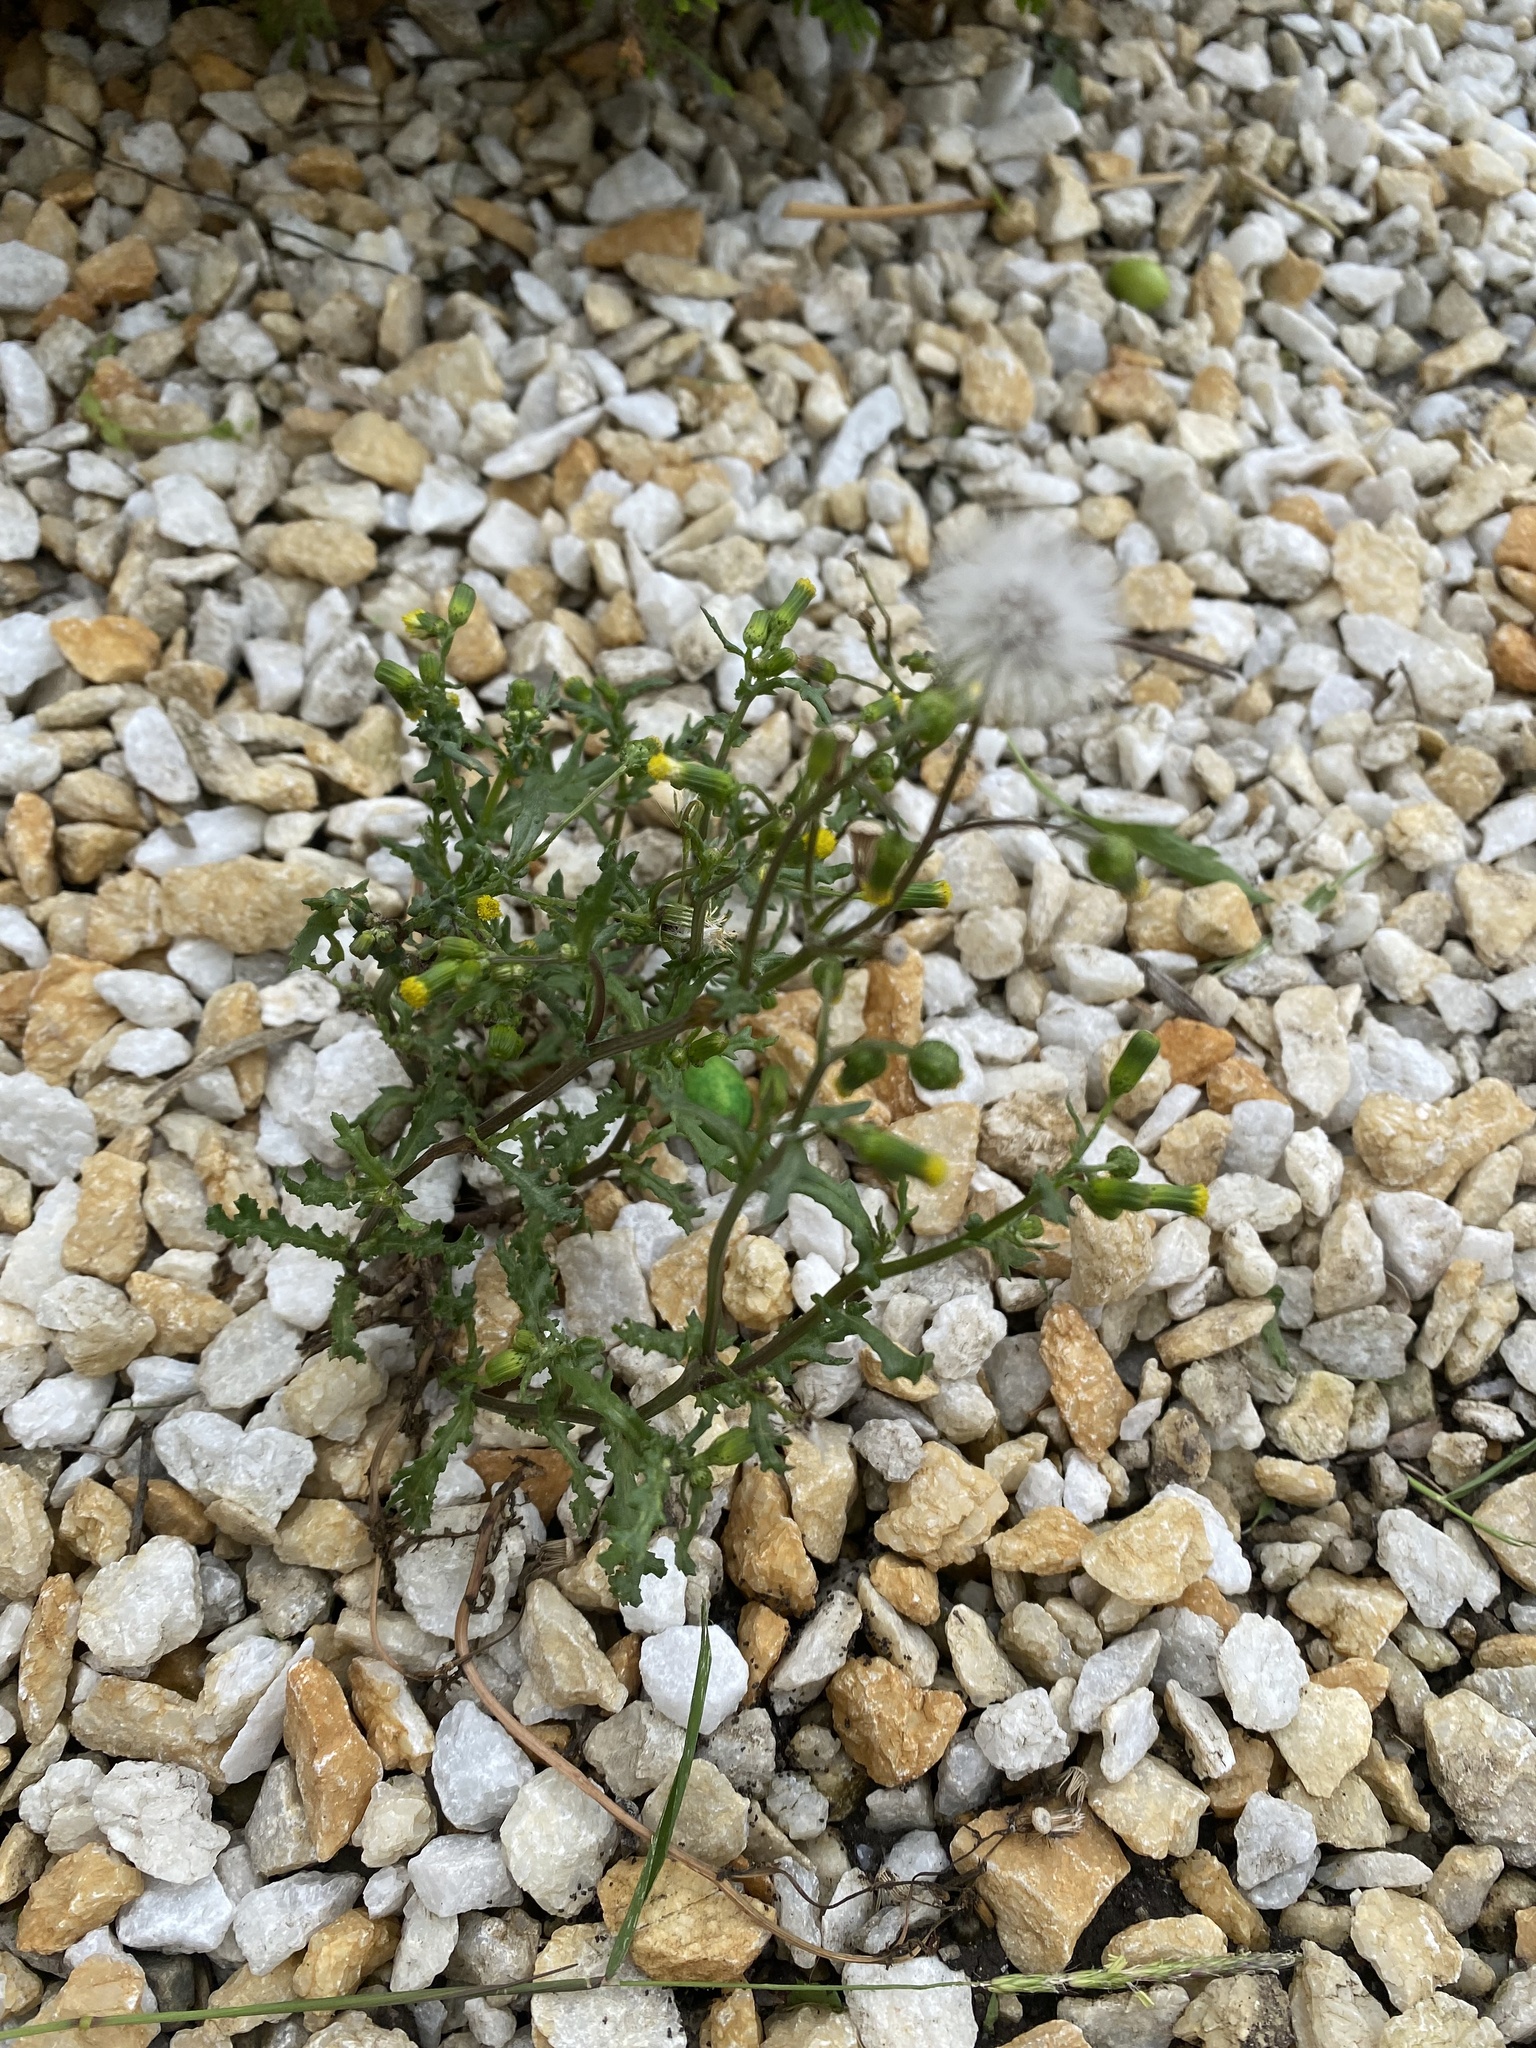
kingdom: Plantae
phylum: Tracheophyta
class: Magnoliopsida
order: Asterales
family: Asteraceae
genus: Senecio
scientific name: Senecio vulgaris
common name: Old-man-in-the-spring
